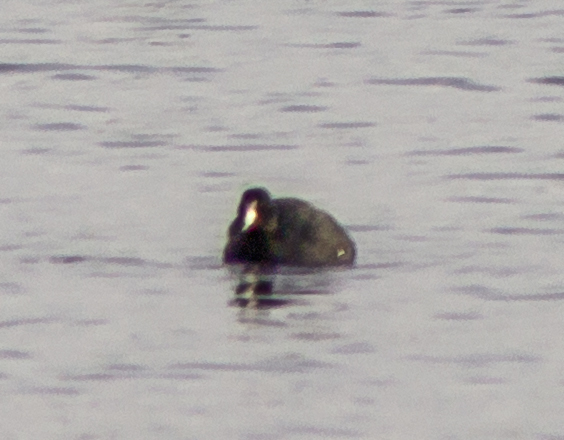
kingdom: Animalia
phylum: Chordata
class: Aves
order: Gruiformes
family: Rallidae
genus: Fulica
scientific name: Fulica americana
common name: American coot
